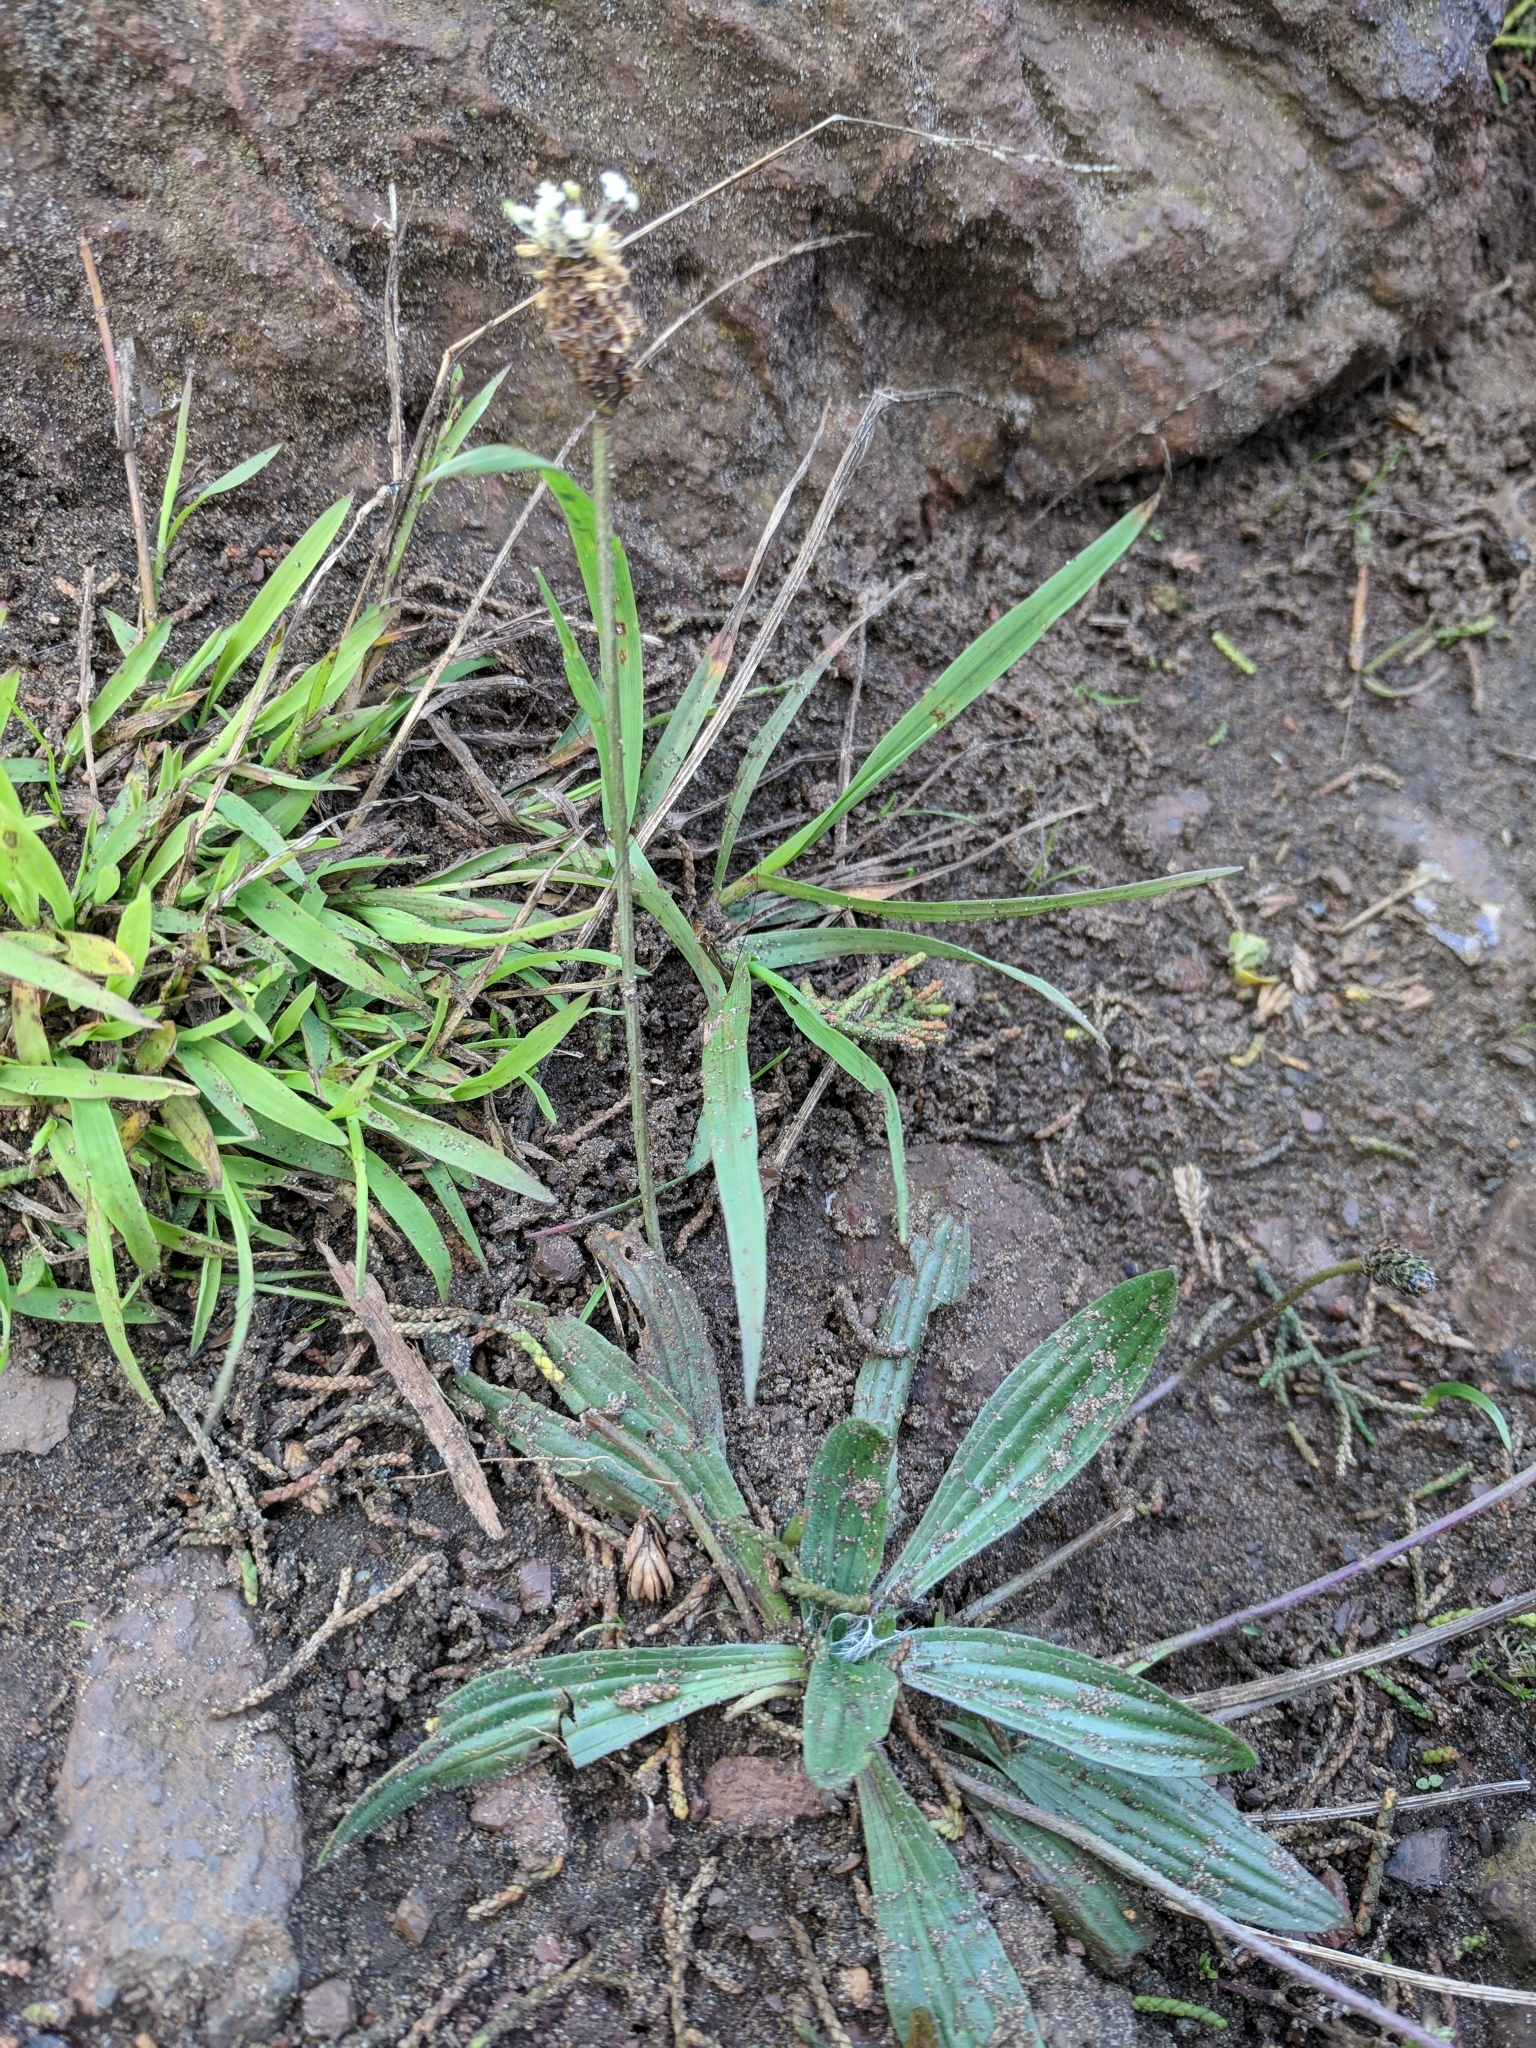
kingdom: Plantae
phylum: Tracheophyta
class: Magnoliopsida
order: Lamiales
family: Plantaginaceae
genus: Plantago
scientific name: Plantago lanceolata
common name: Ribwort plantain
